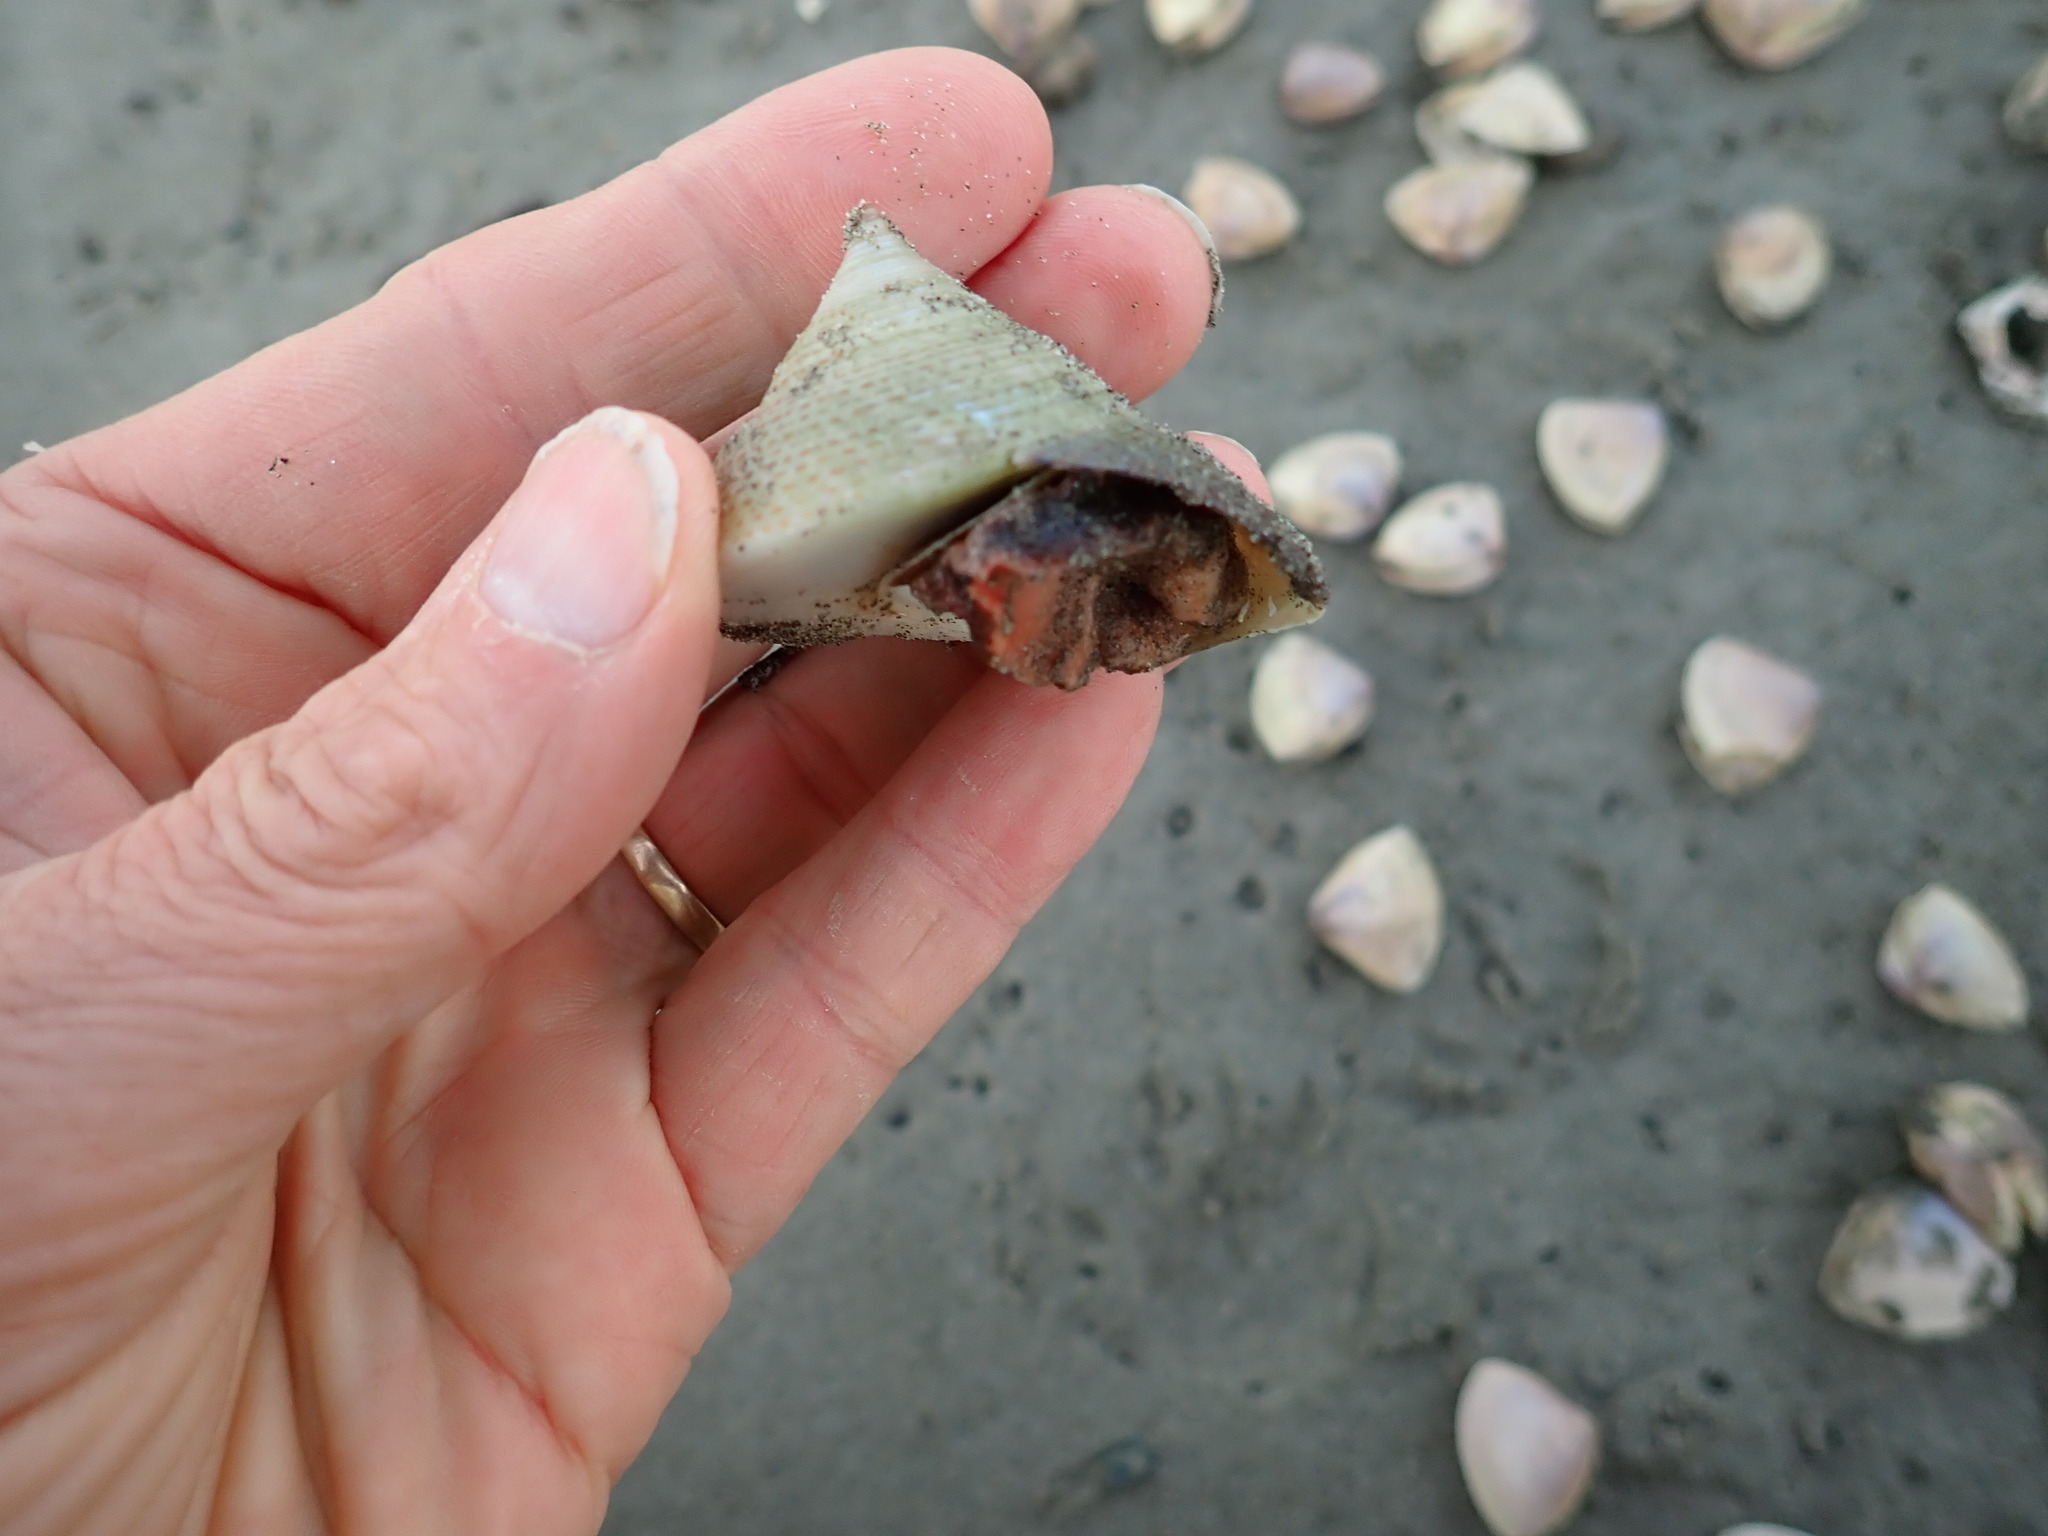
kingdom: Animalia
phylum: Mollusca
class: Gastropoda
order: Trochida
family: Calliostomatidae
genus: Maurea
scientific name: Maurea selecta
